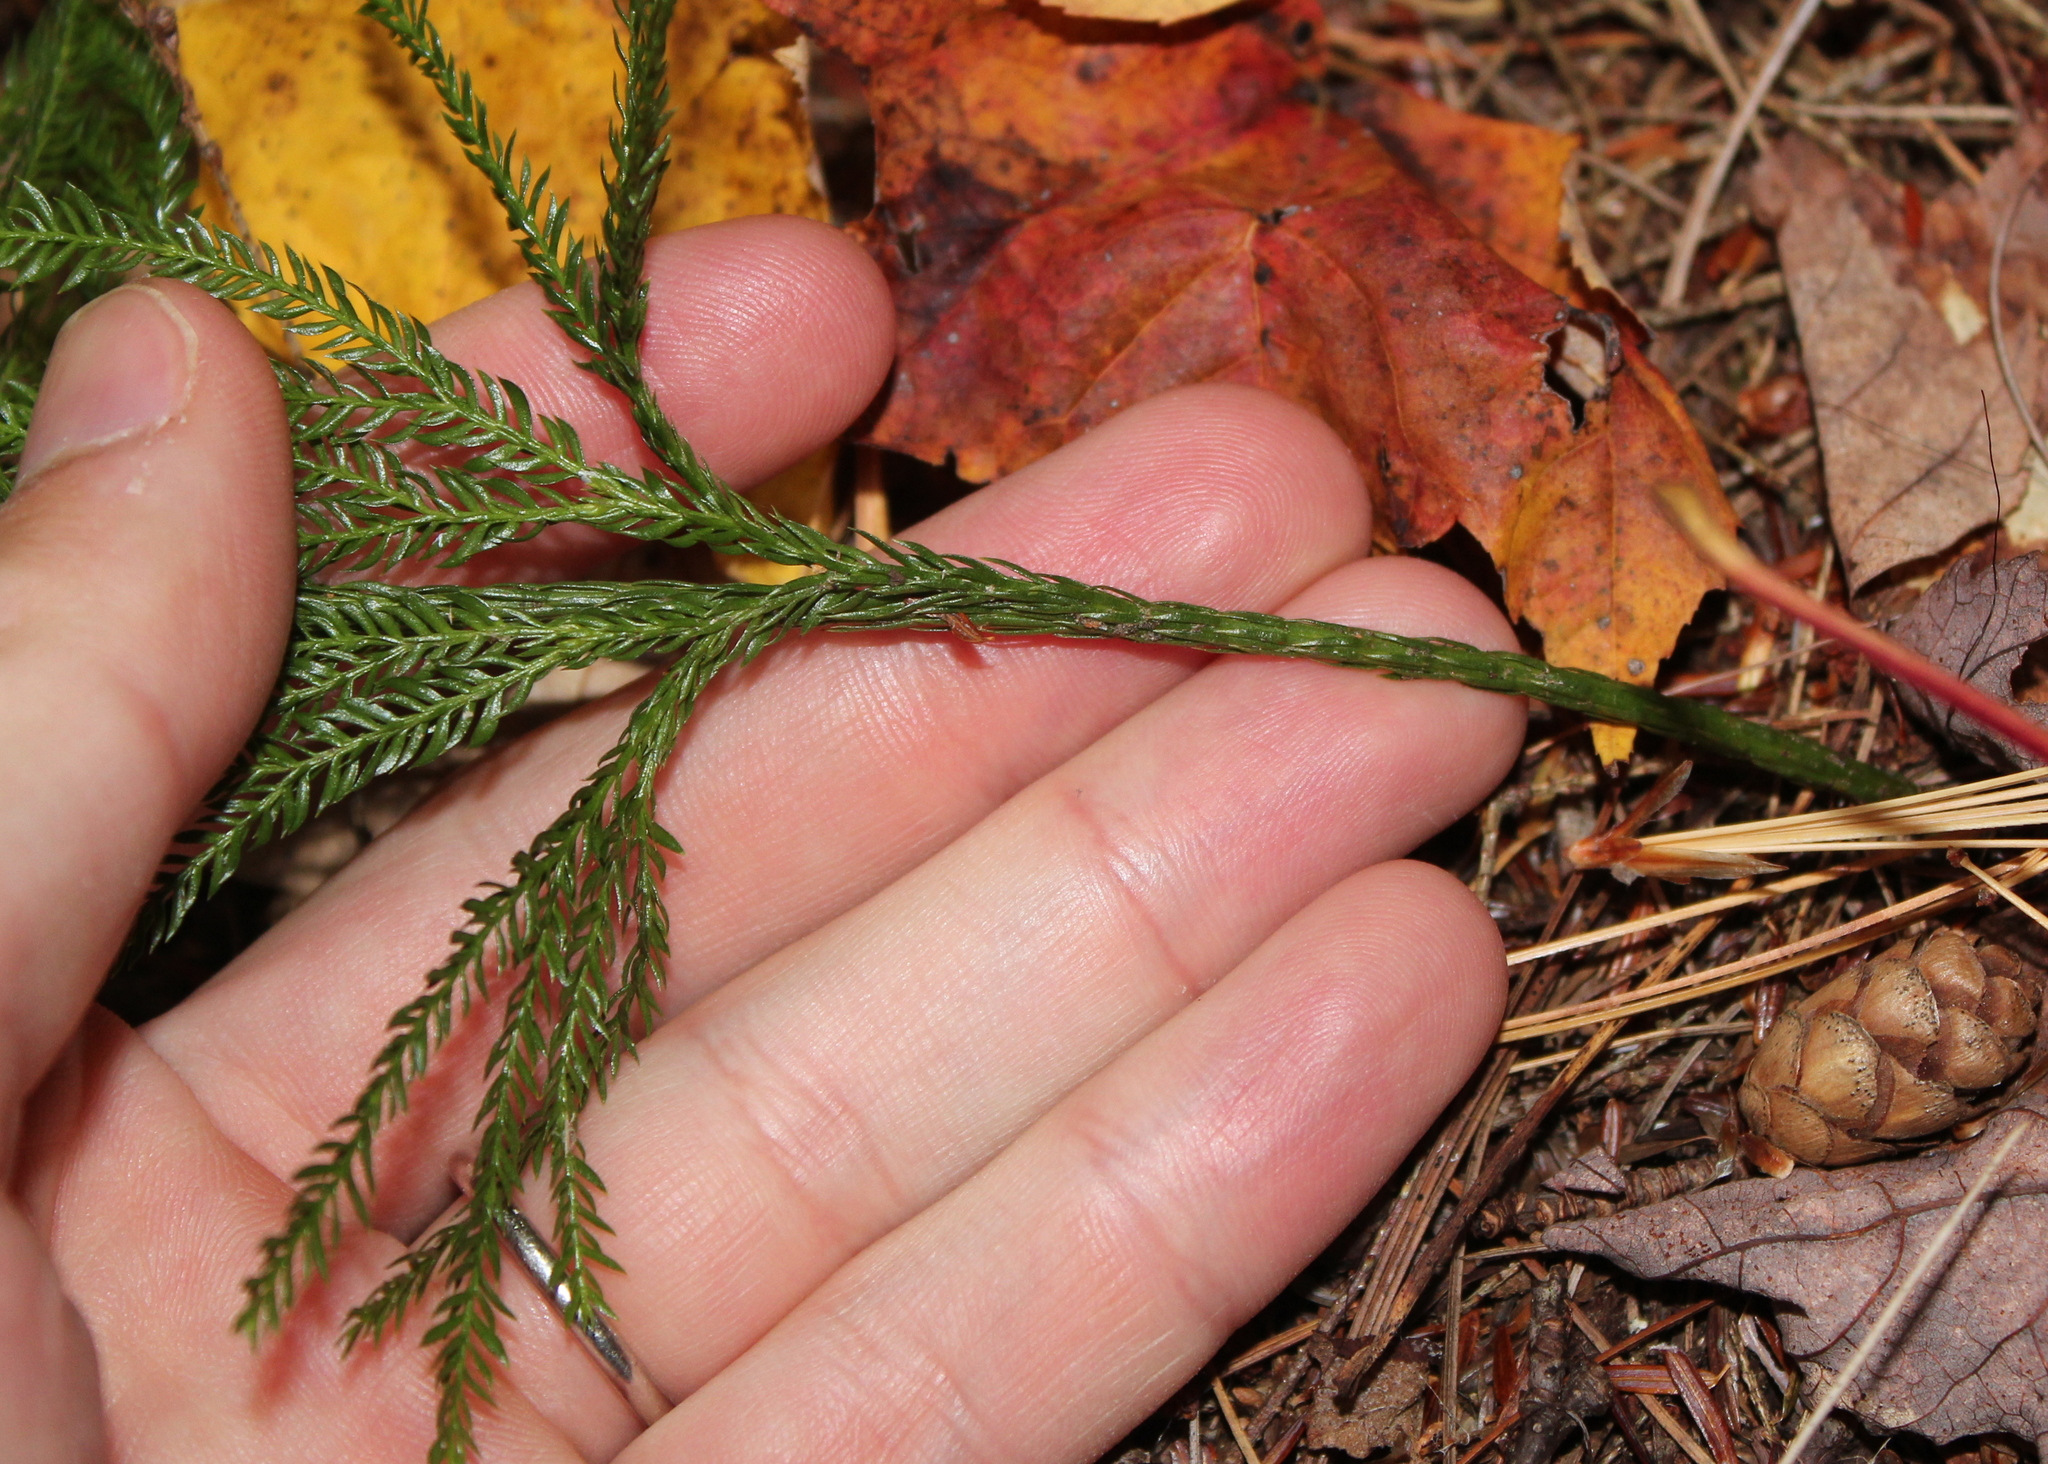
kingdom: Plantae
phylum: Tracheophyta
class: Lycopodiopsida
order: Lycopodiales
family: Lycopodiaceae
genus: Dendrolycopodium
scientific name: Dendrolycopodium obscurum
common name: Common ground-pine
